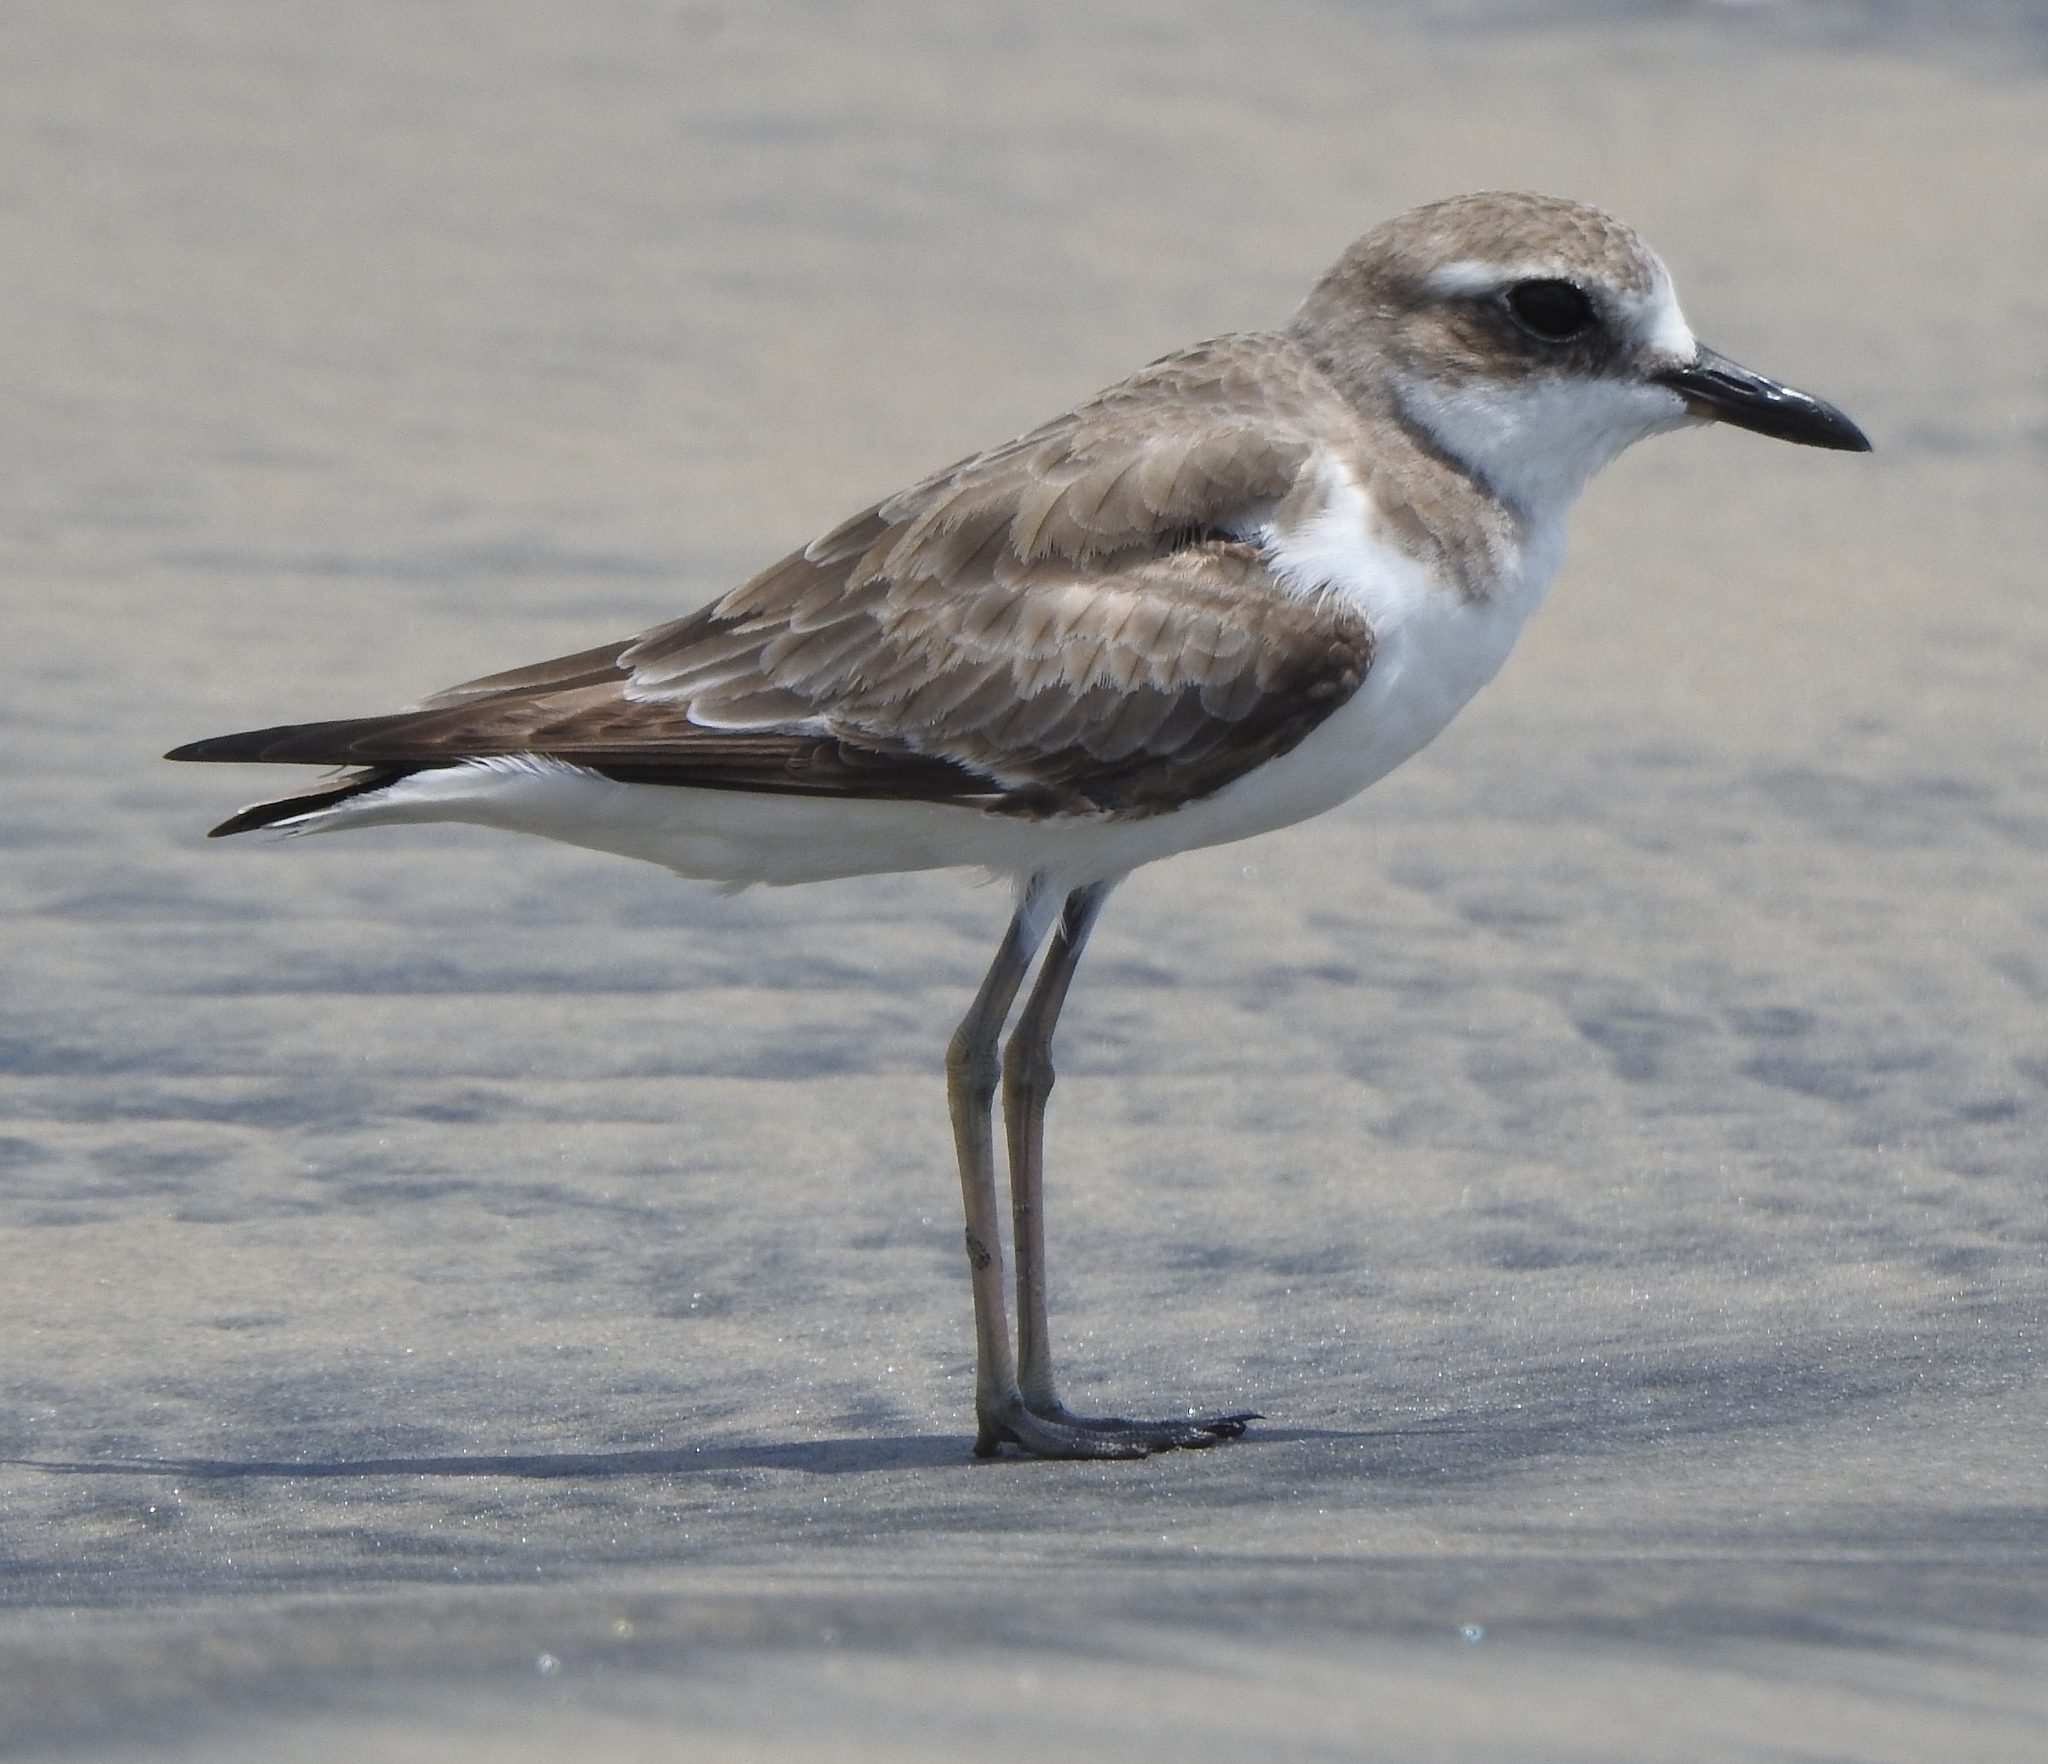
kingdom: Animalia
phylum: Chordata
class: Aves
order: Charadriiformes
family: Charadriidae
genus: Charadrius
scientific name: Charadrius leschenaultii
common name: Greater sand plover
